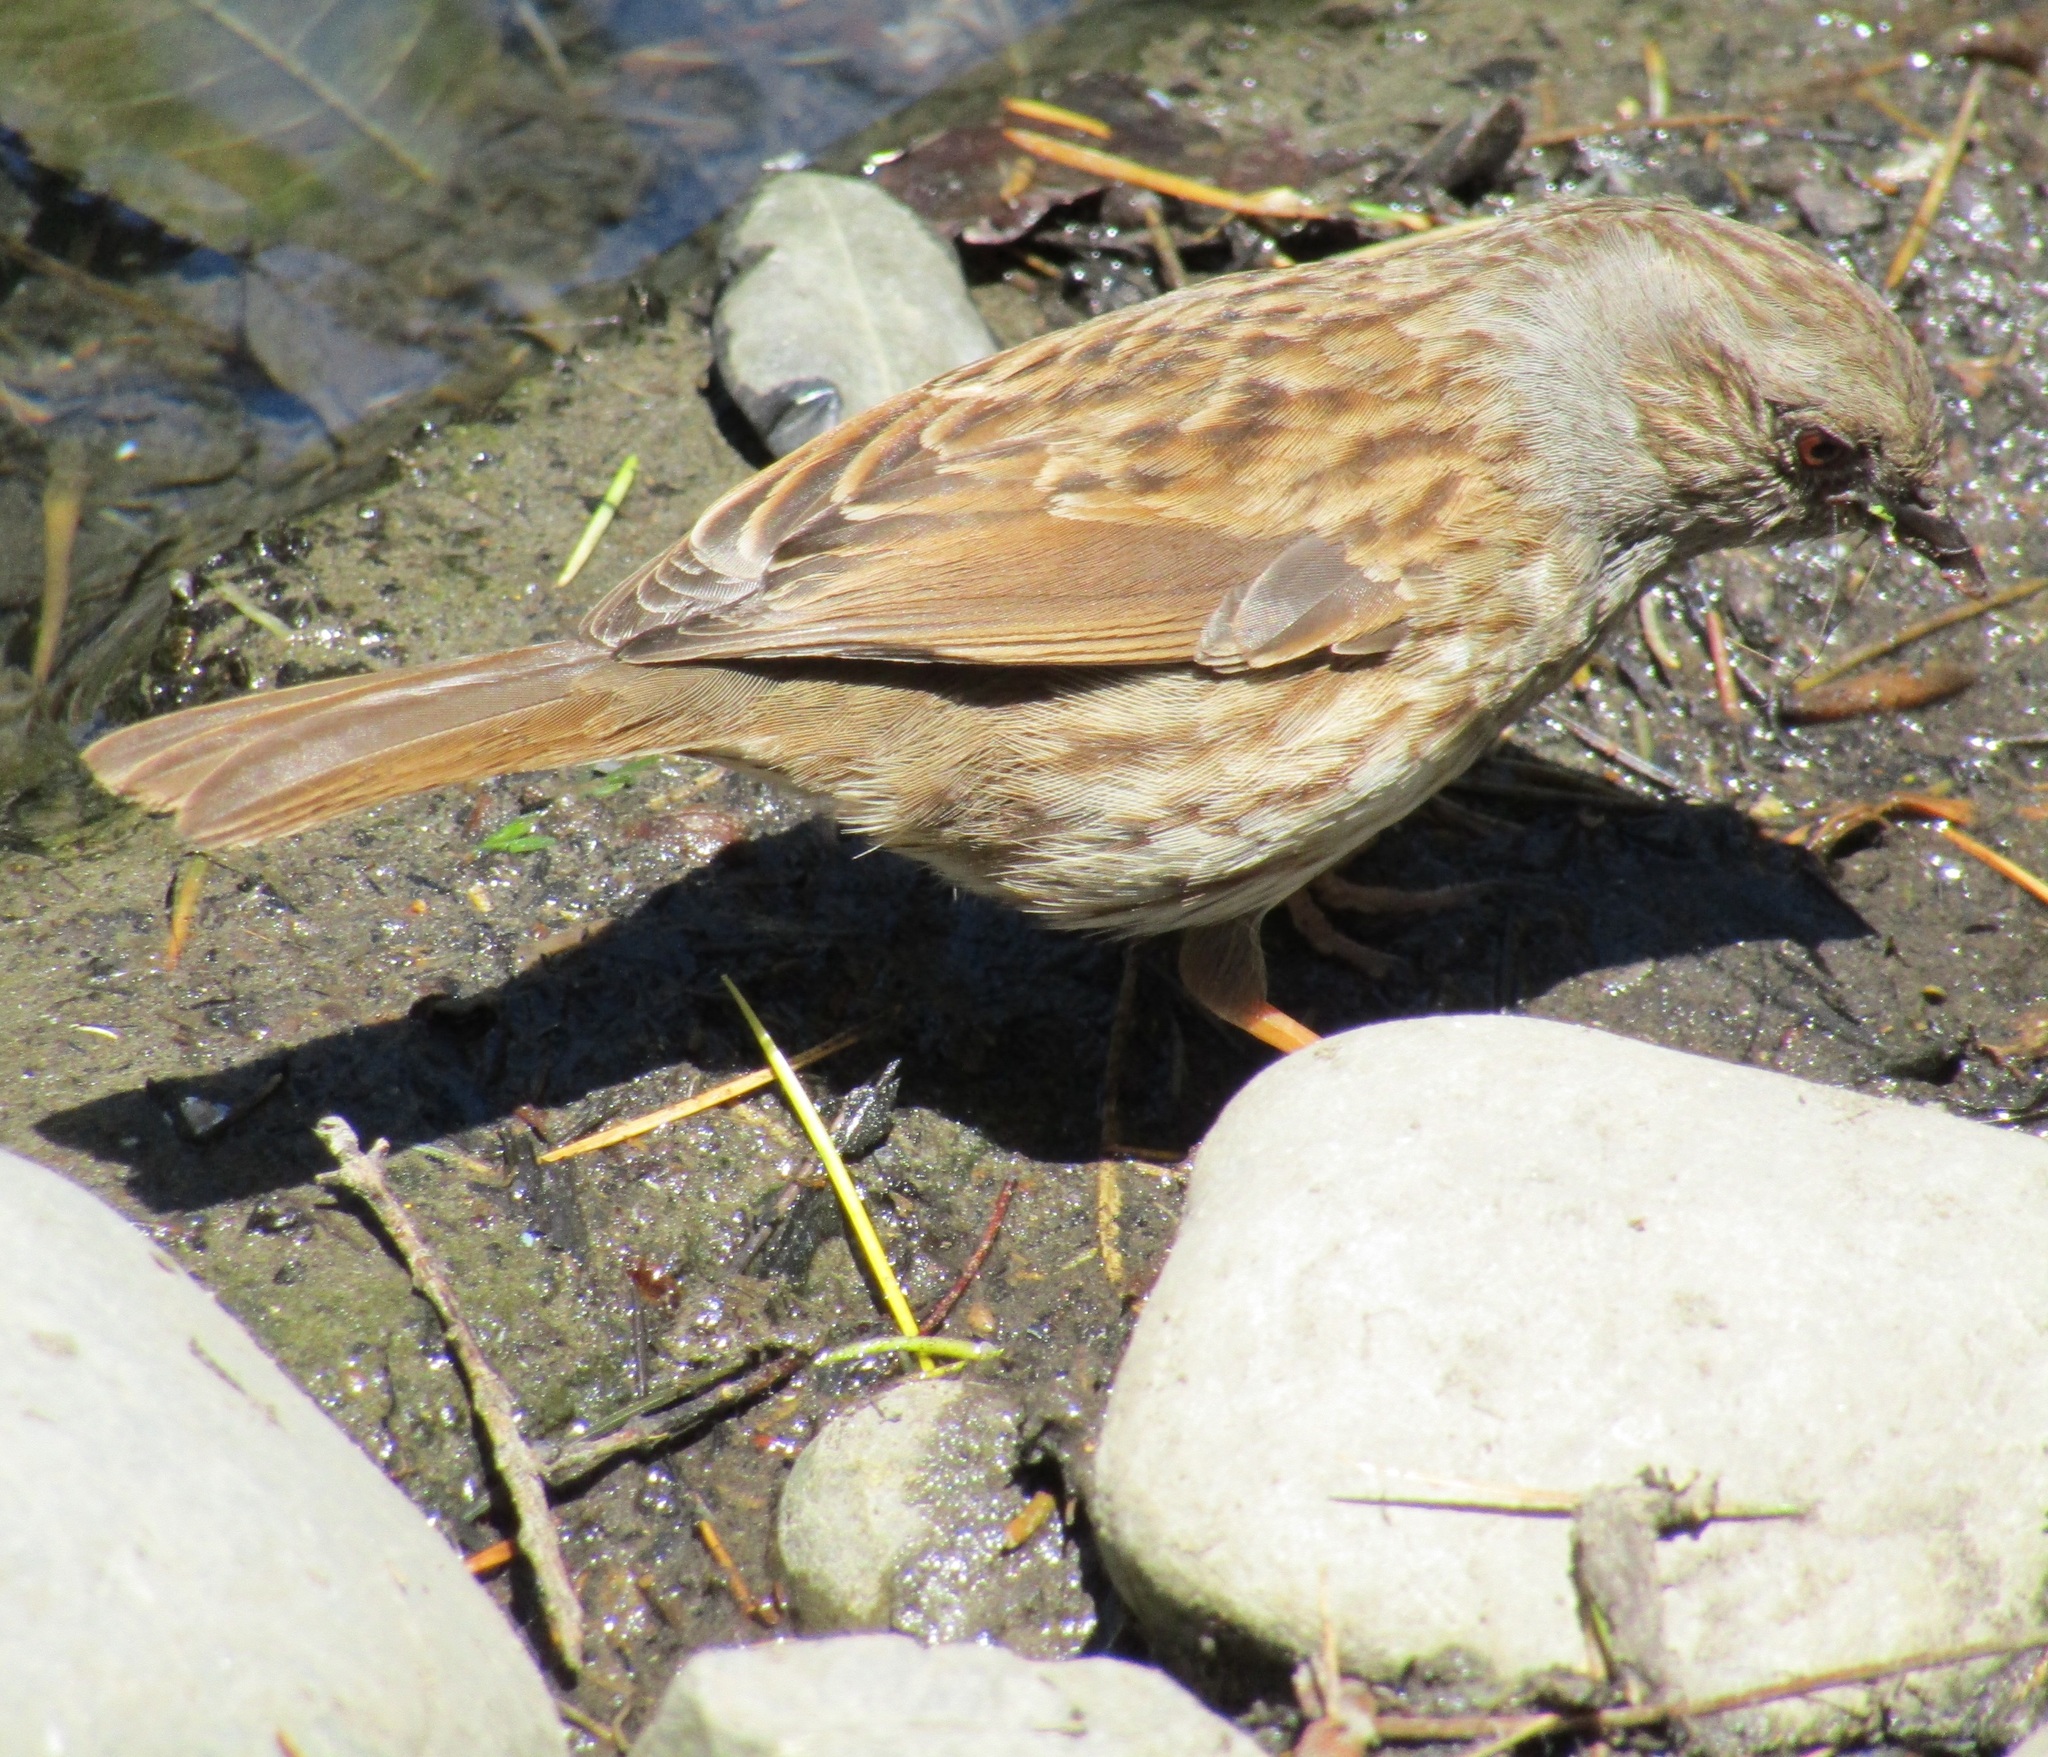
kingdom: Animalia
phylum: Chordata
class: Aves
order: Passeriformes
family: Prunellidae
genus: Prunella
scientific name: Prunella modularis
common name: Dunnock
